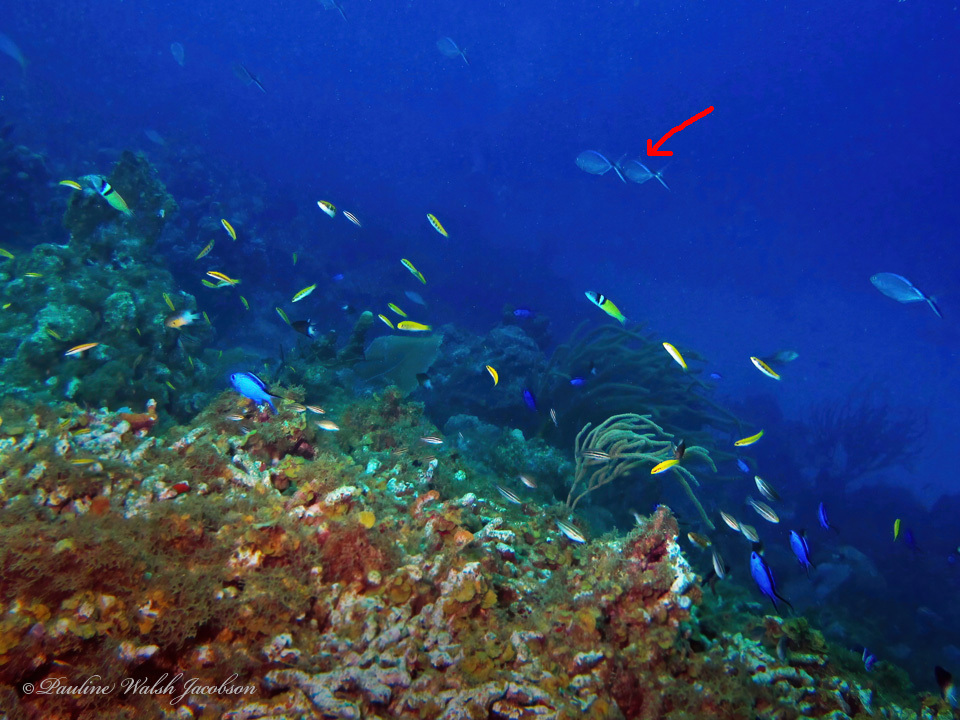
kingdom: Animalia
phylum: Chordata
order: Perciformes
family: Carangidae
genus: Caranx
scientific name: Caranx ruber
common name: Bar jack
